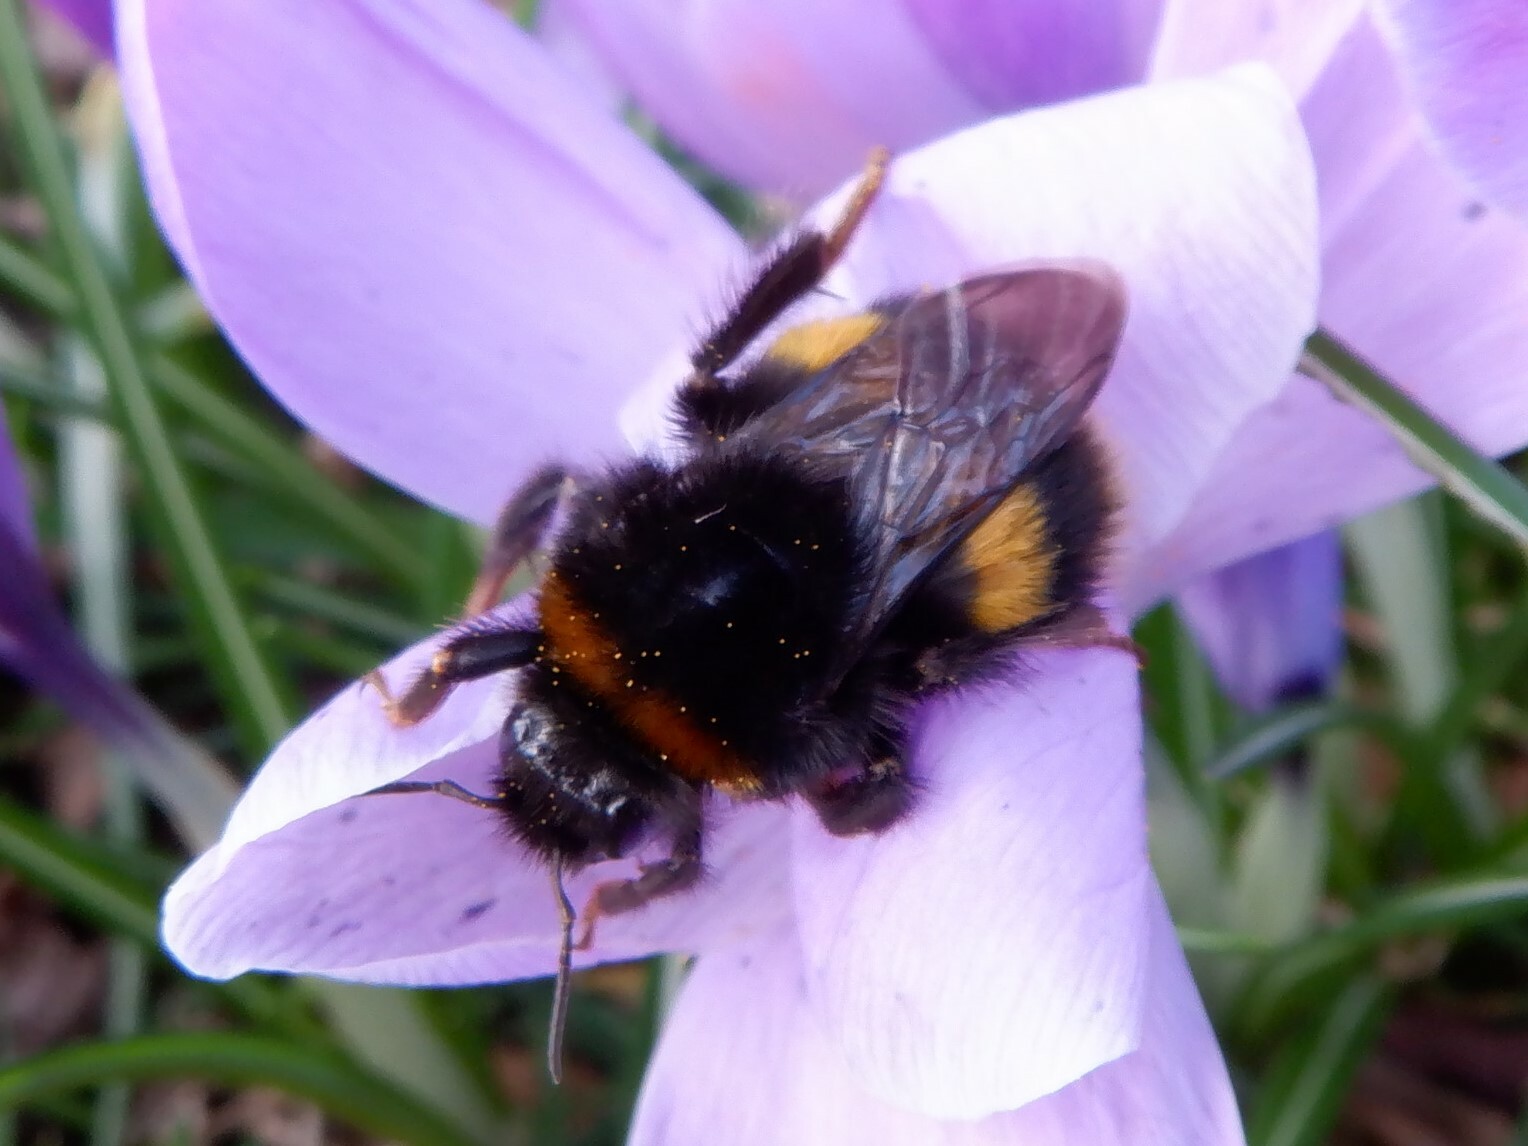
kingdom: Animalia
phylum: Arthropoda
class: Insecta
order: Hymenoptera
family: Apidae
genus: Bombus
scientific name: Bombus terrestris
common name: Buff-tailed bumblebee
